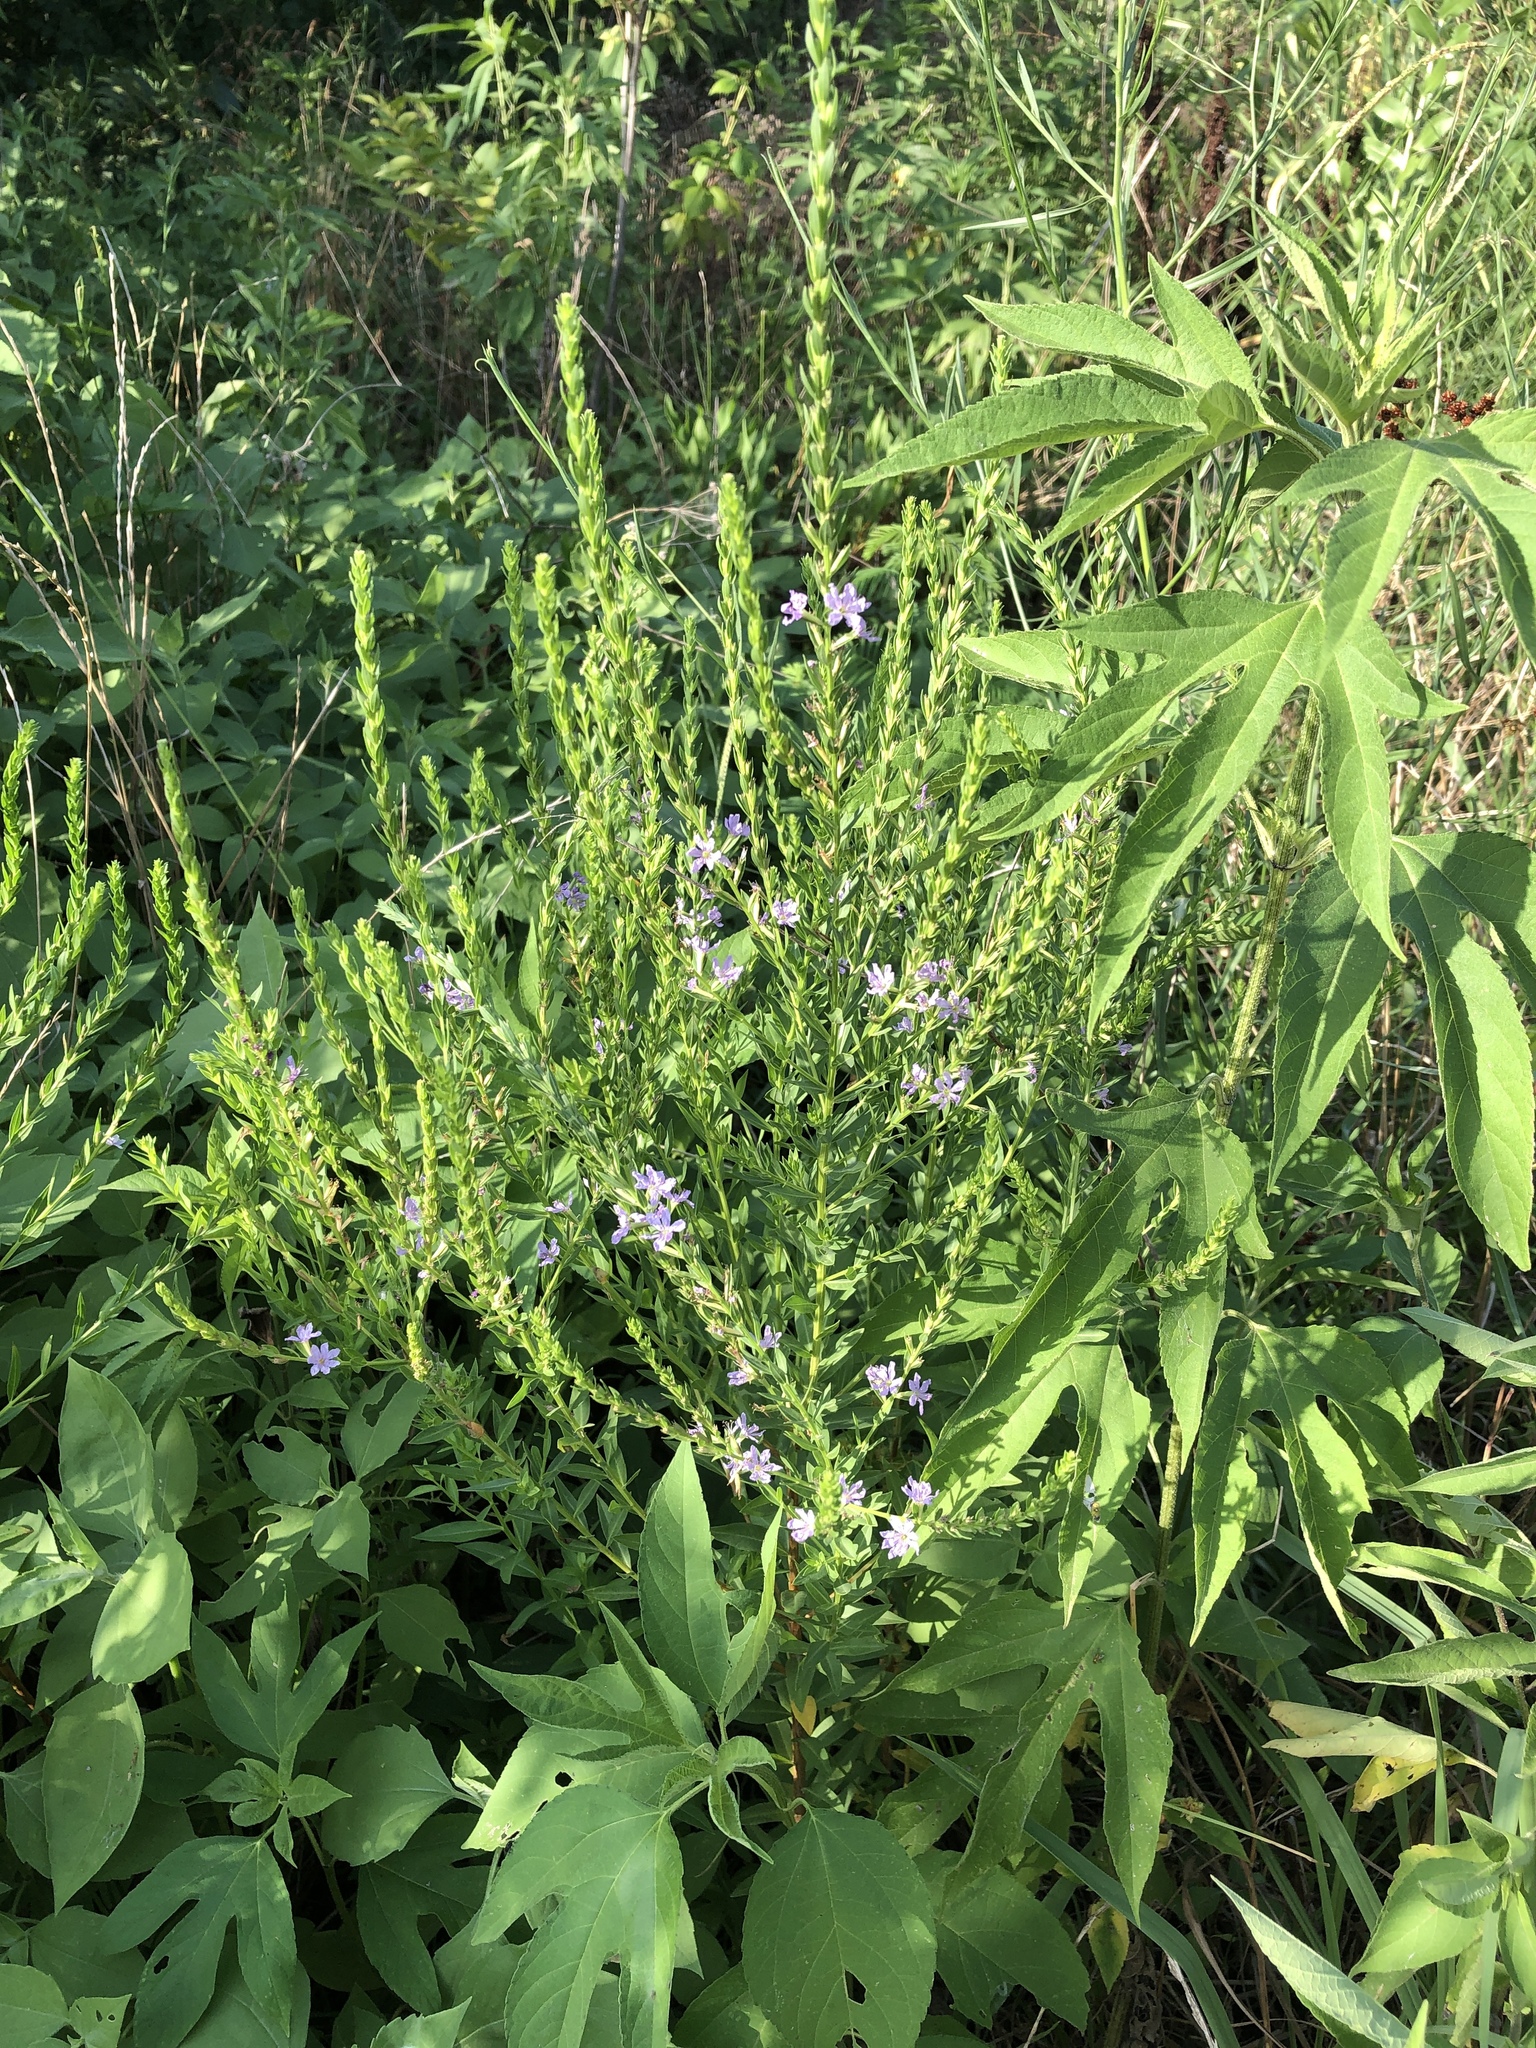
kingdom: Plantae
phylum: Tracheophyta
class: Magnoliopsida
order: Myrtales
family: Lythraceae
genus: Lythrum
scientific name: Lythrum alatum
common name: Winged loosestrife
